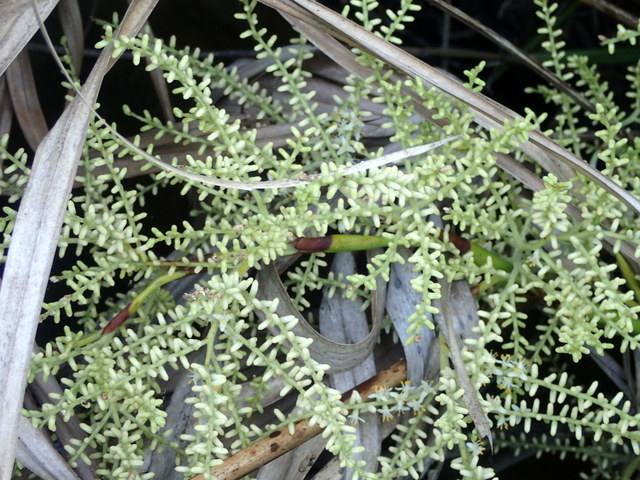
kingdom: Plantae
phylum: Tracheophyta
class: Liliopsida
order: Arecales
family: Arecaceae
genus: Serenoa
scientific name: Serenoa repens
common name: Saw-palmetto
